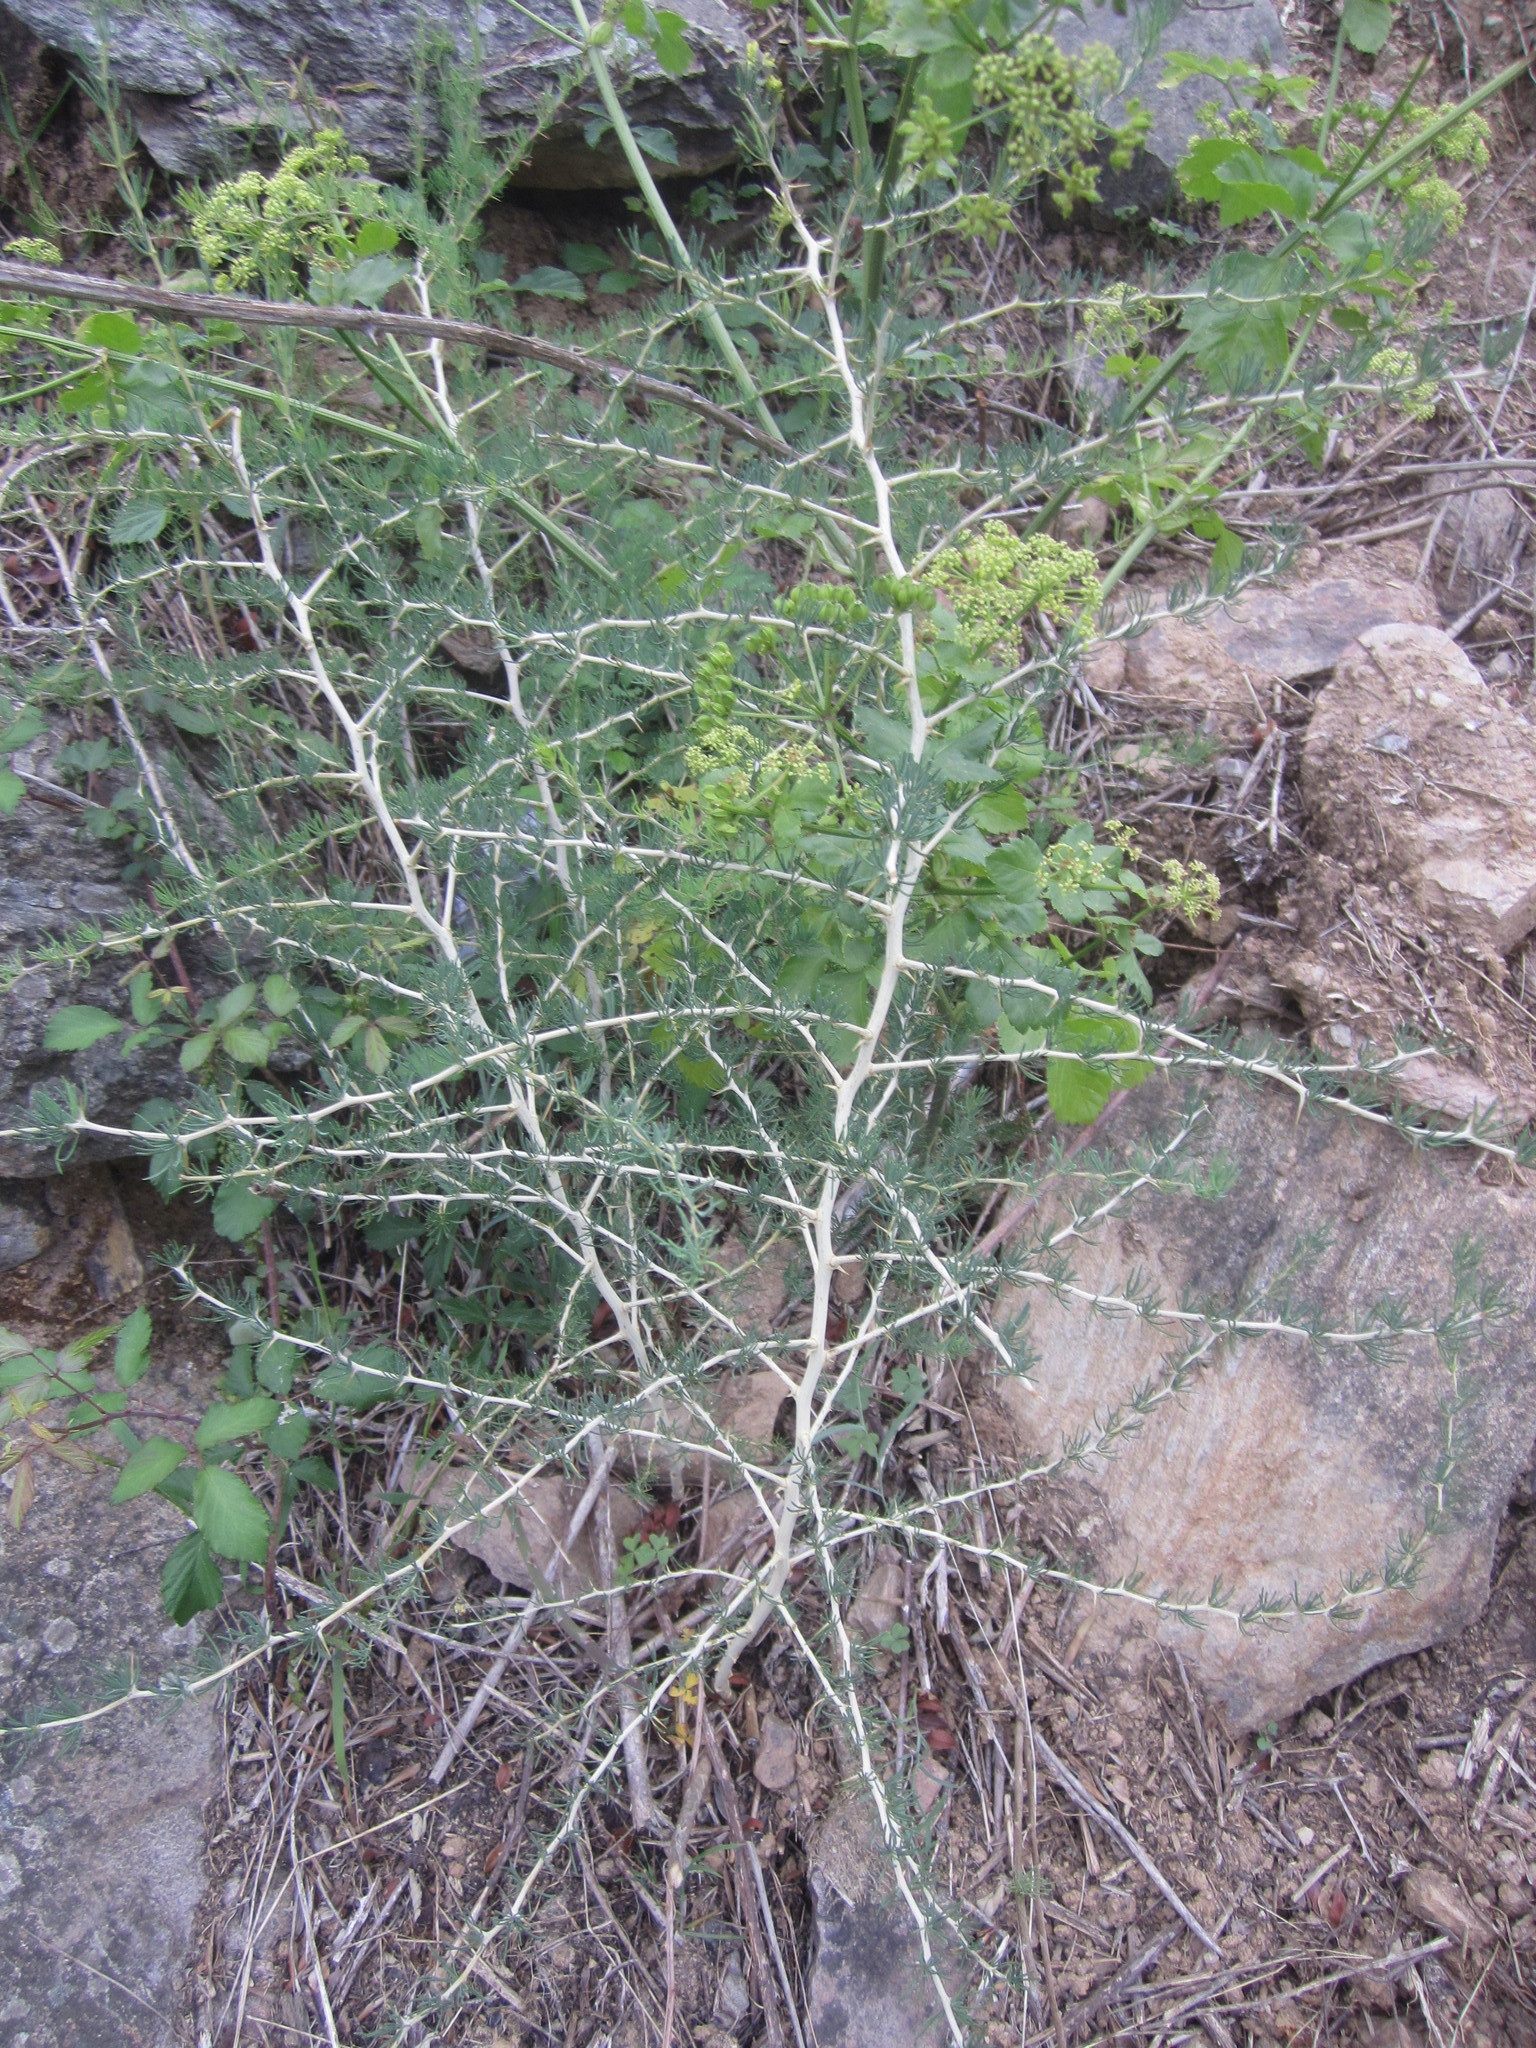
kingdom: Plantae
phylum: Tracheophyta
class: Liliopsida
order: Asparagales
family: Asparagaceae
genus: Asparagus
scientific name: Asparagus albus
